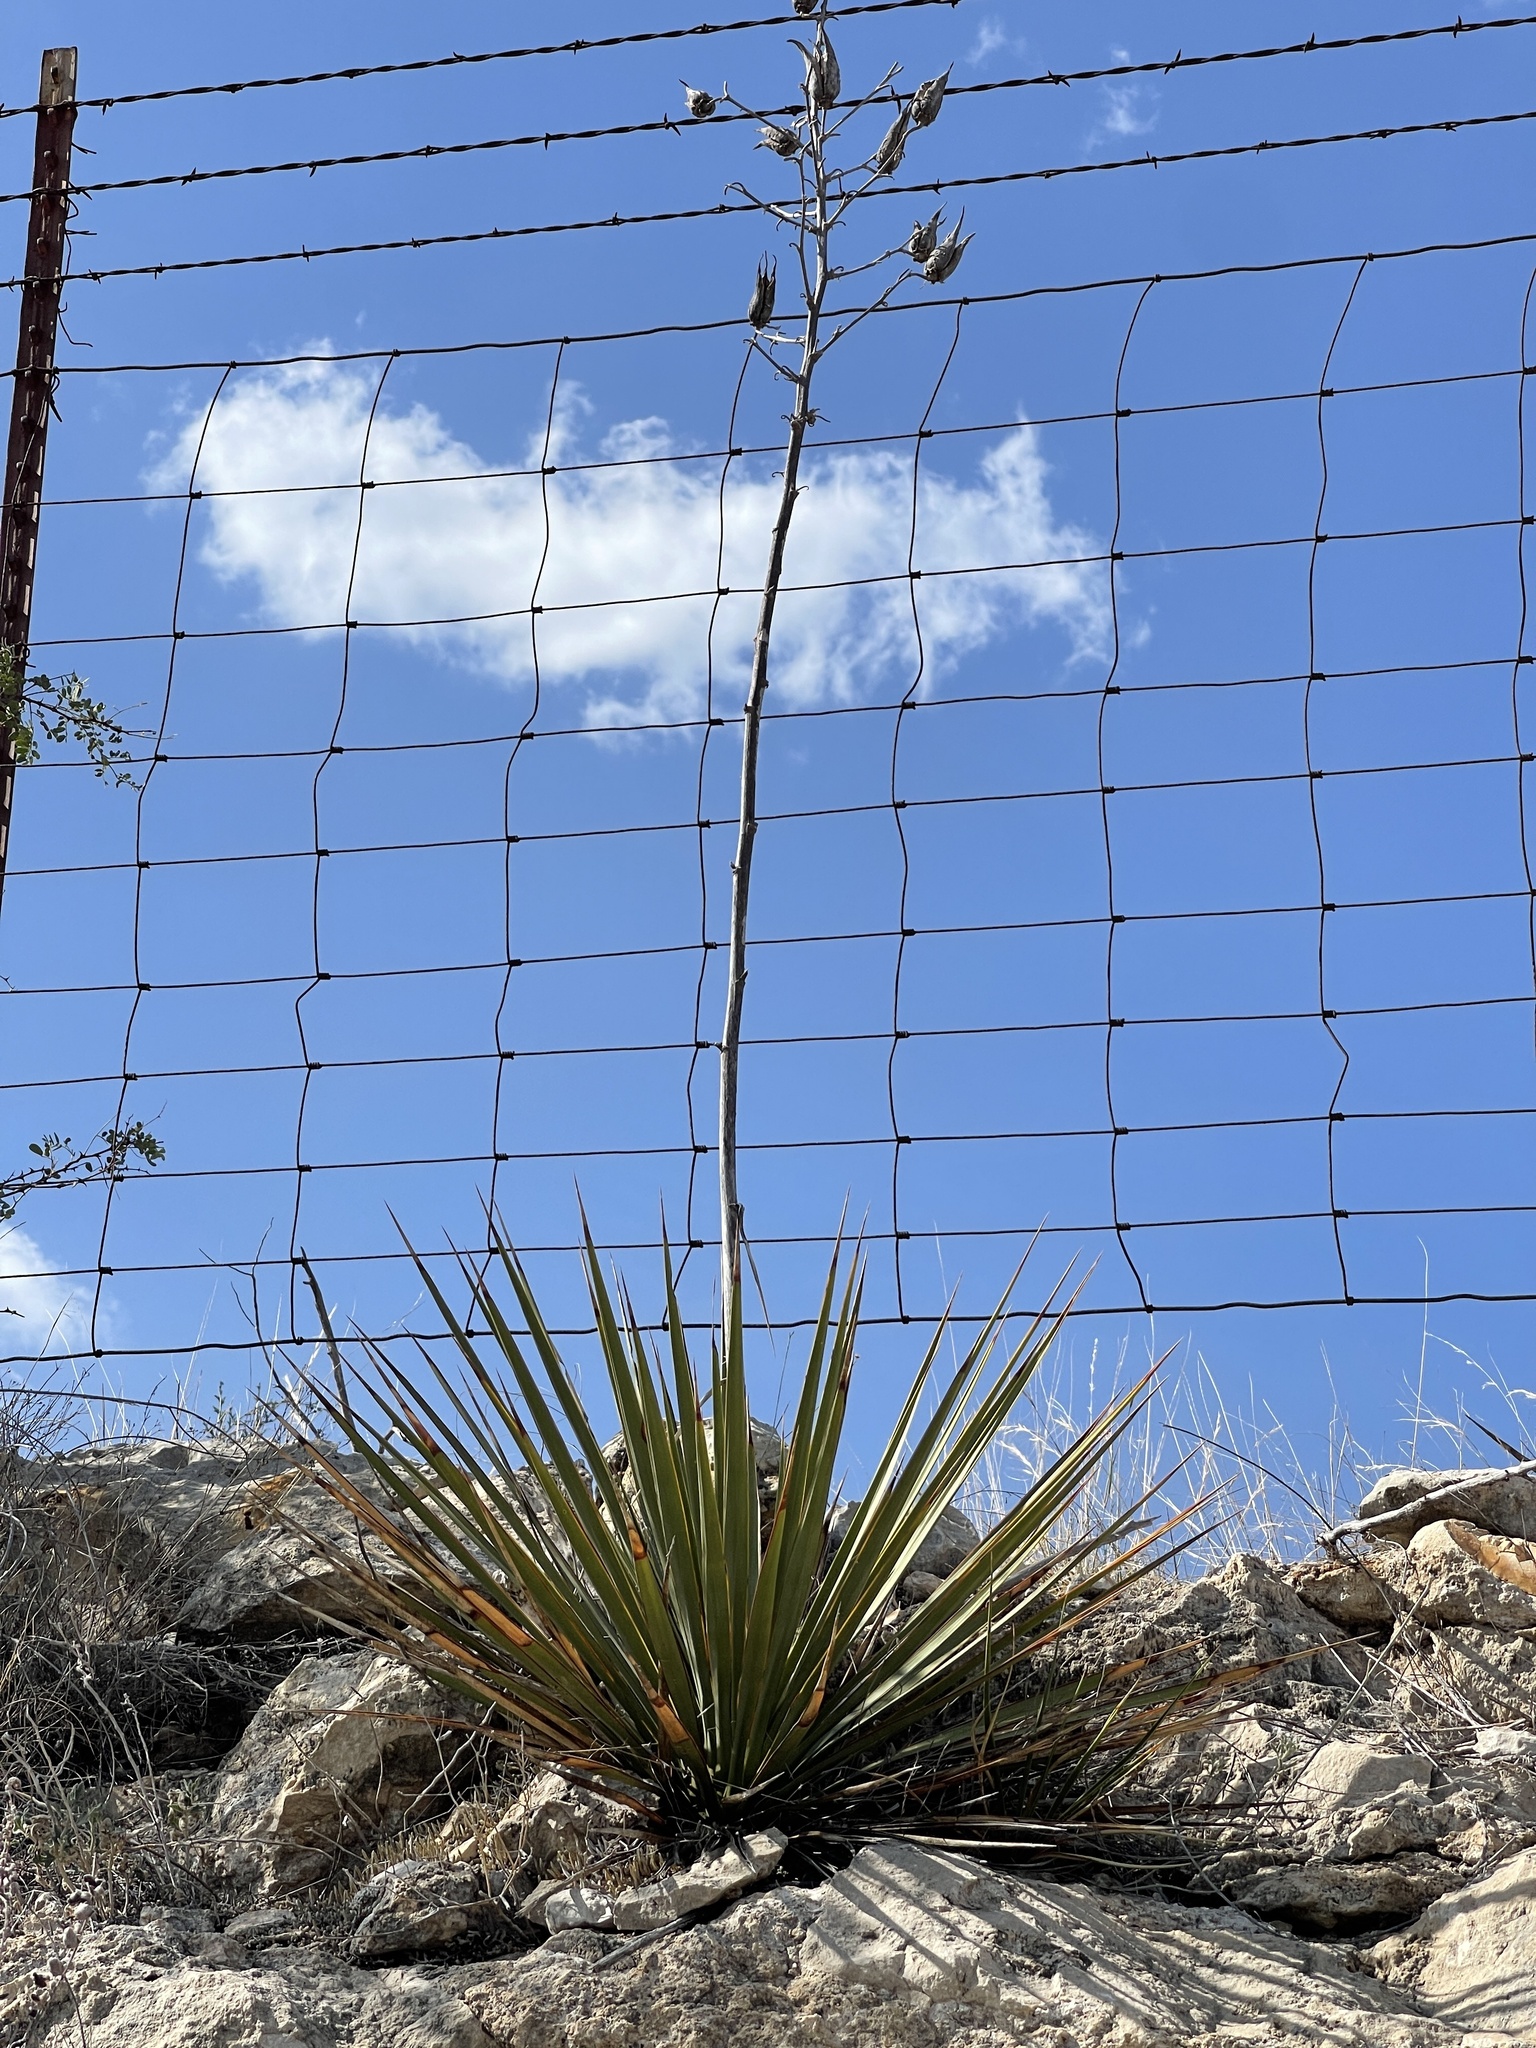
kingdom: Plantae
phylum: Tracheophyta
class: Liliopsida
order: Asparagales
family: Asparagaceae
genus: Yucca
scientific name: Yucca reverchonii
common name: San angelo yucca
